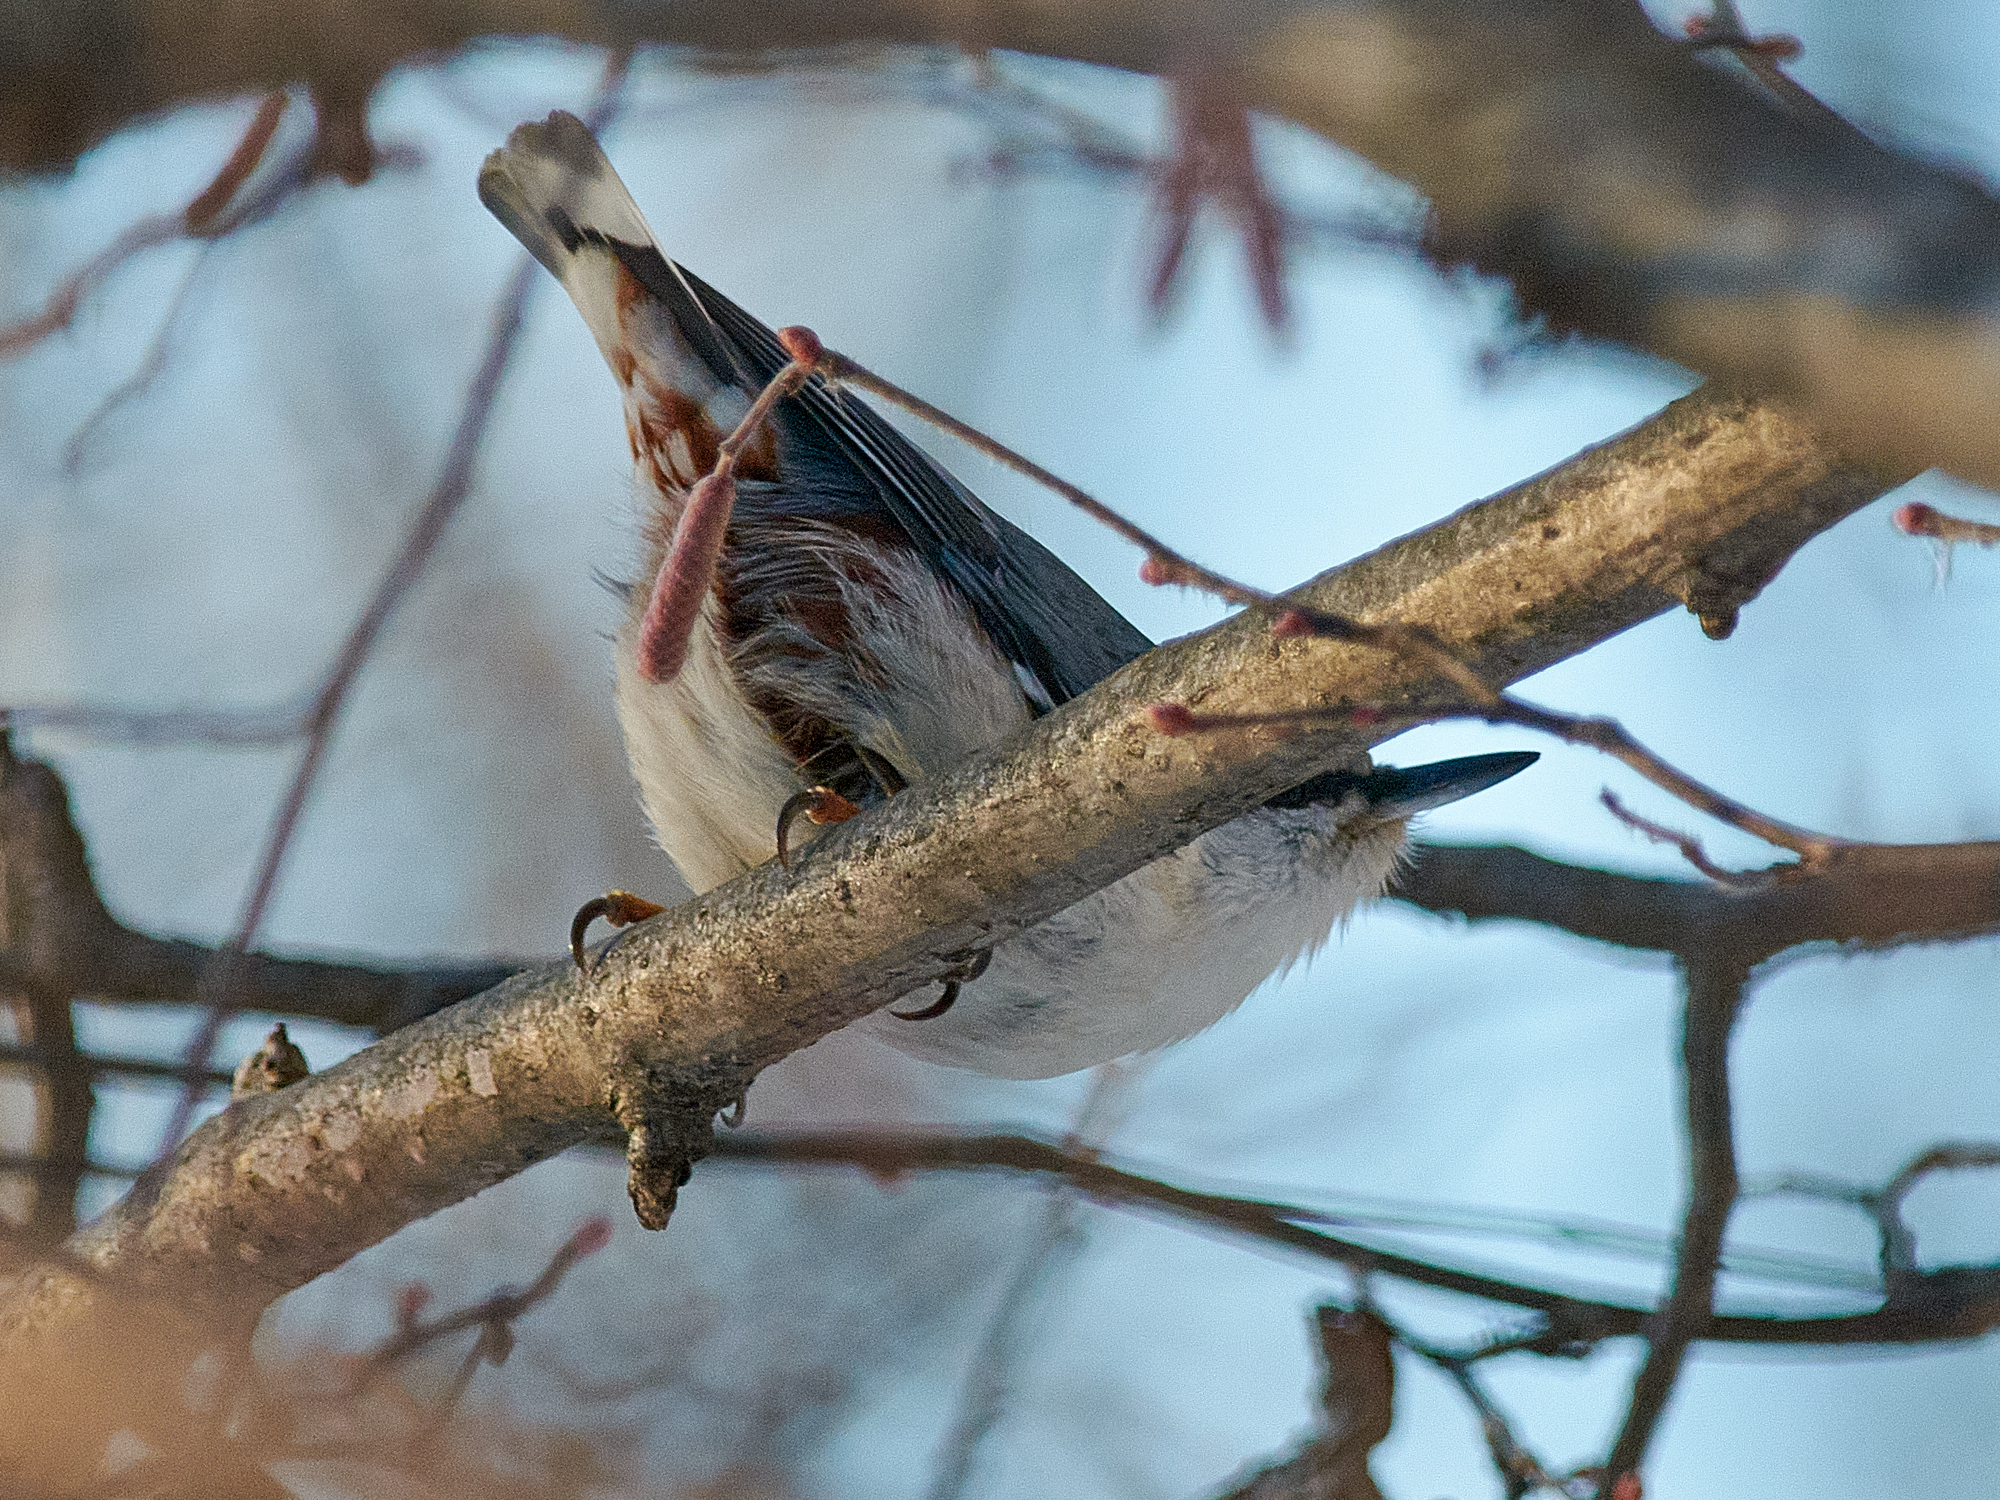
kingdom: Animalia
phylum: Chordata
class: Aves
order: Passeriformes
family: Sittidae
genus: Sitta
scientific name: Sitta europaea
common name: Eurasian nuthatch
